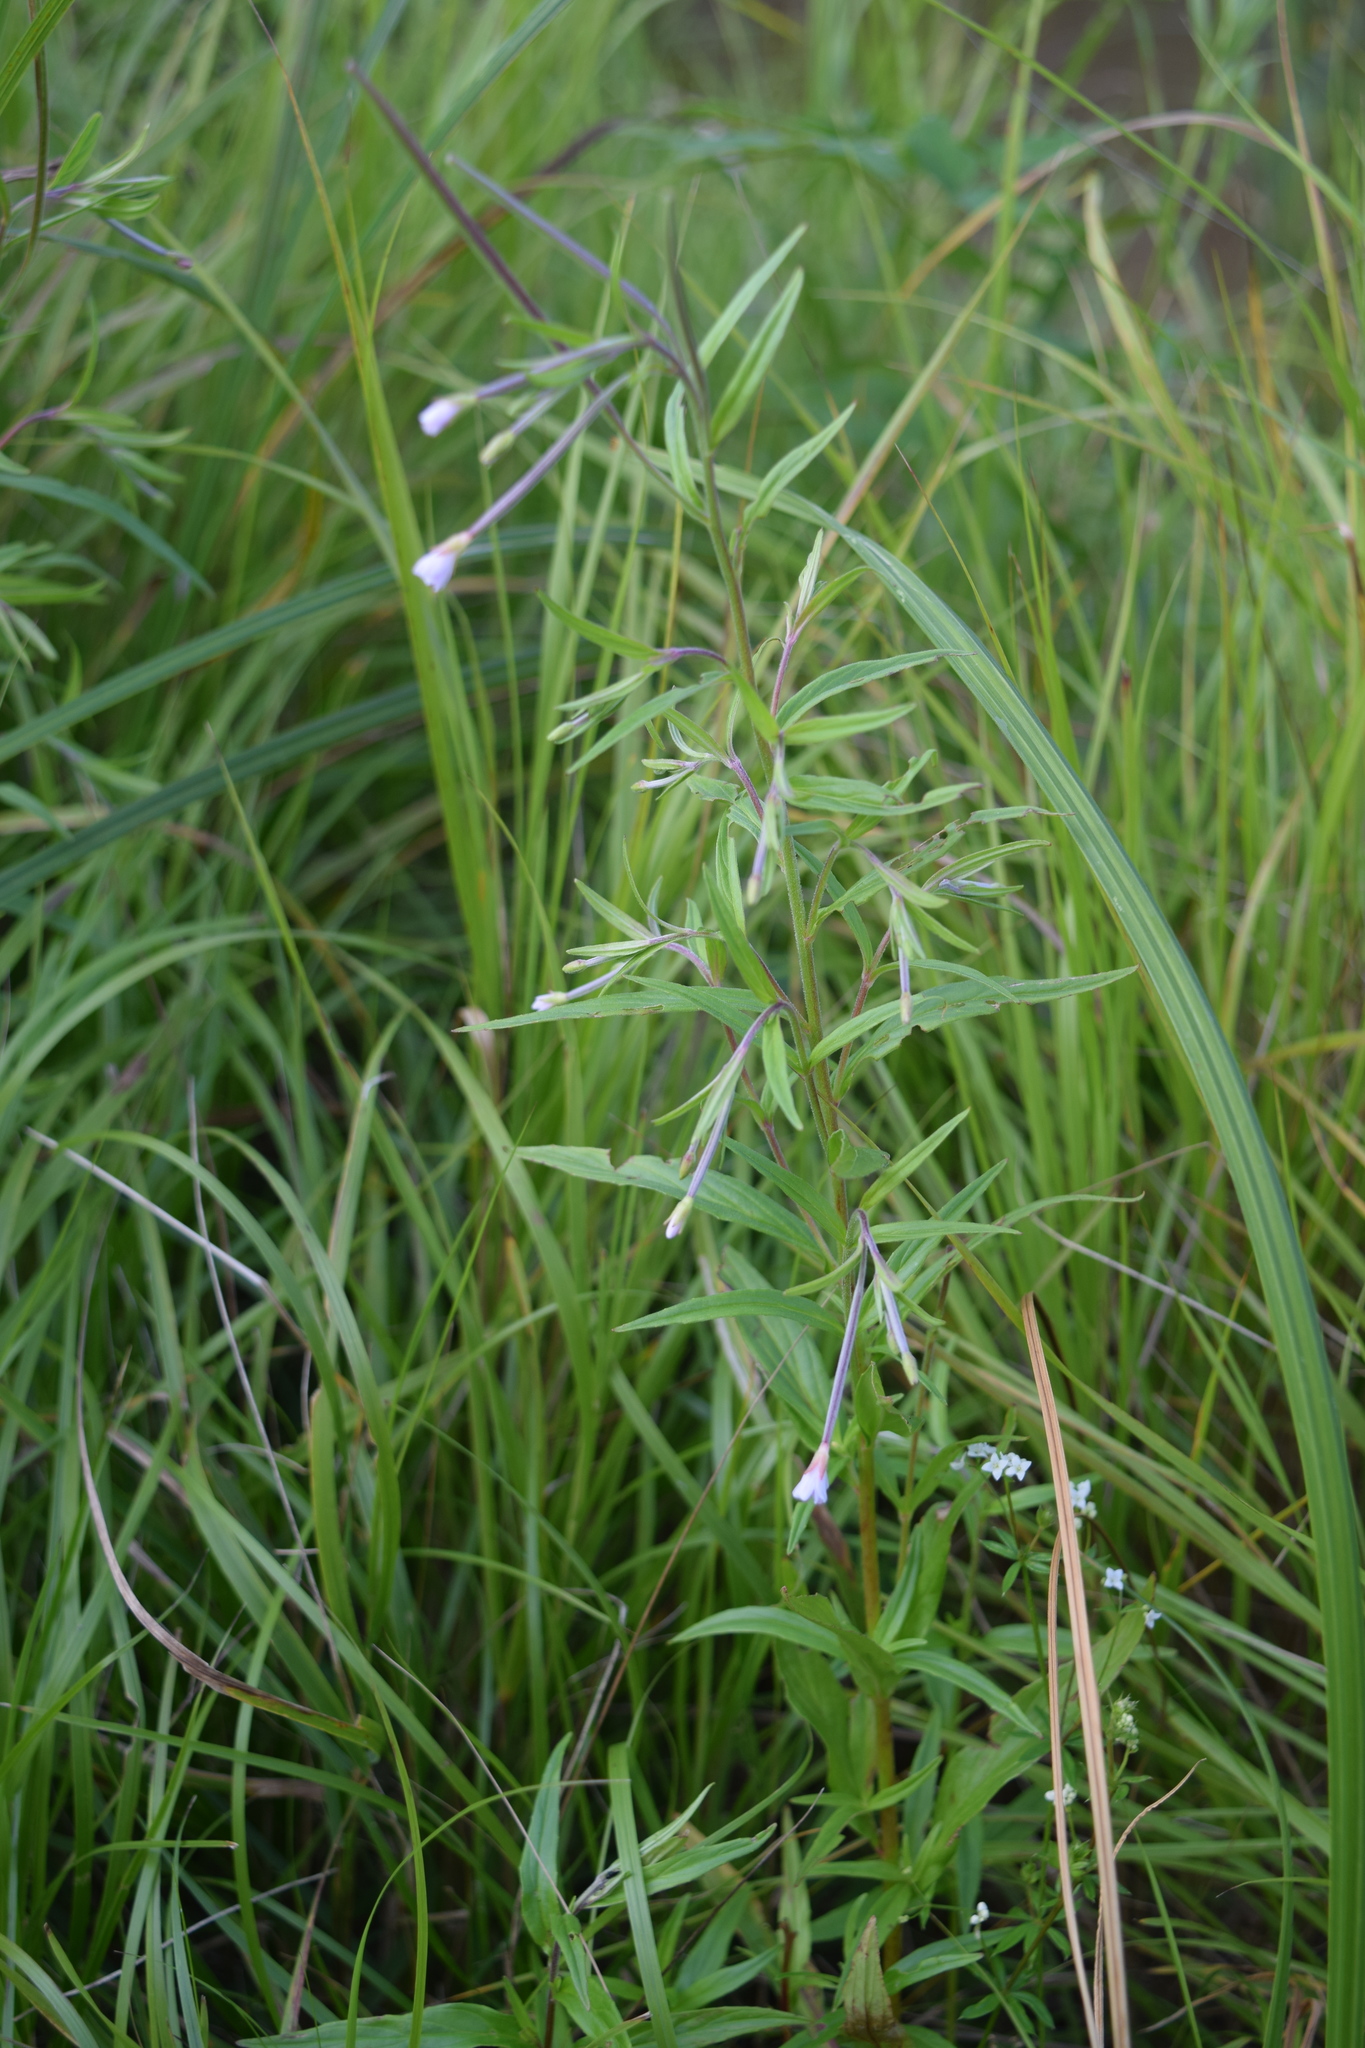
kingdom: Plantae
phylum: Tracheophyta
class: Magnoliopsida
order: Myrtales
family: Onagraceae
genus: Epilobium
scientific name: Epilobium palustre
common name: Marsh willowherb
